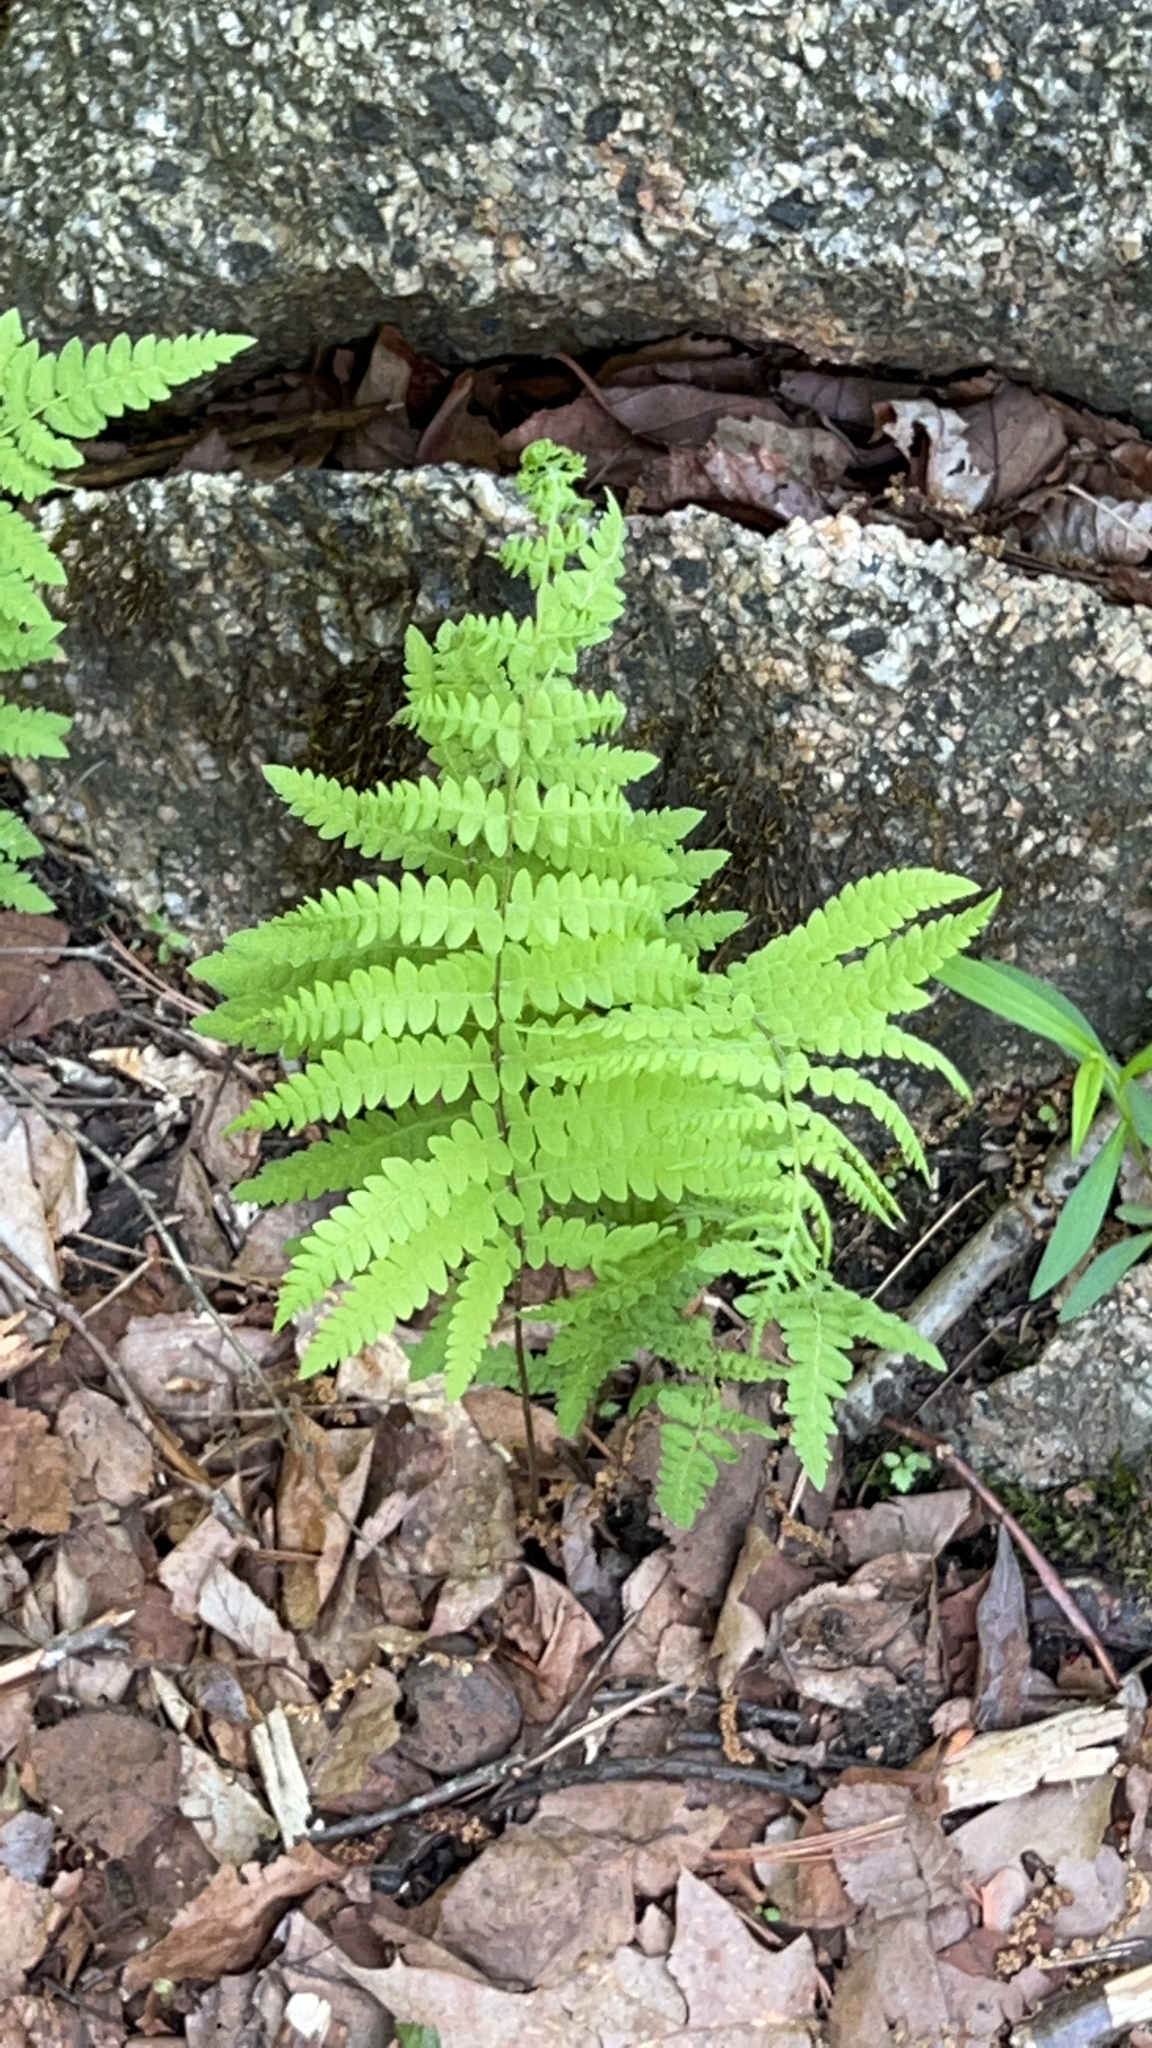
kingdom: Plantae
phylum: Tracheophyta
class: Polypodiopsida
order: Polypodiales
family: Thelypteridaceae
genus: Thelypteris
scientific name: Thelypteris palustris
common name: Marsh fern
